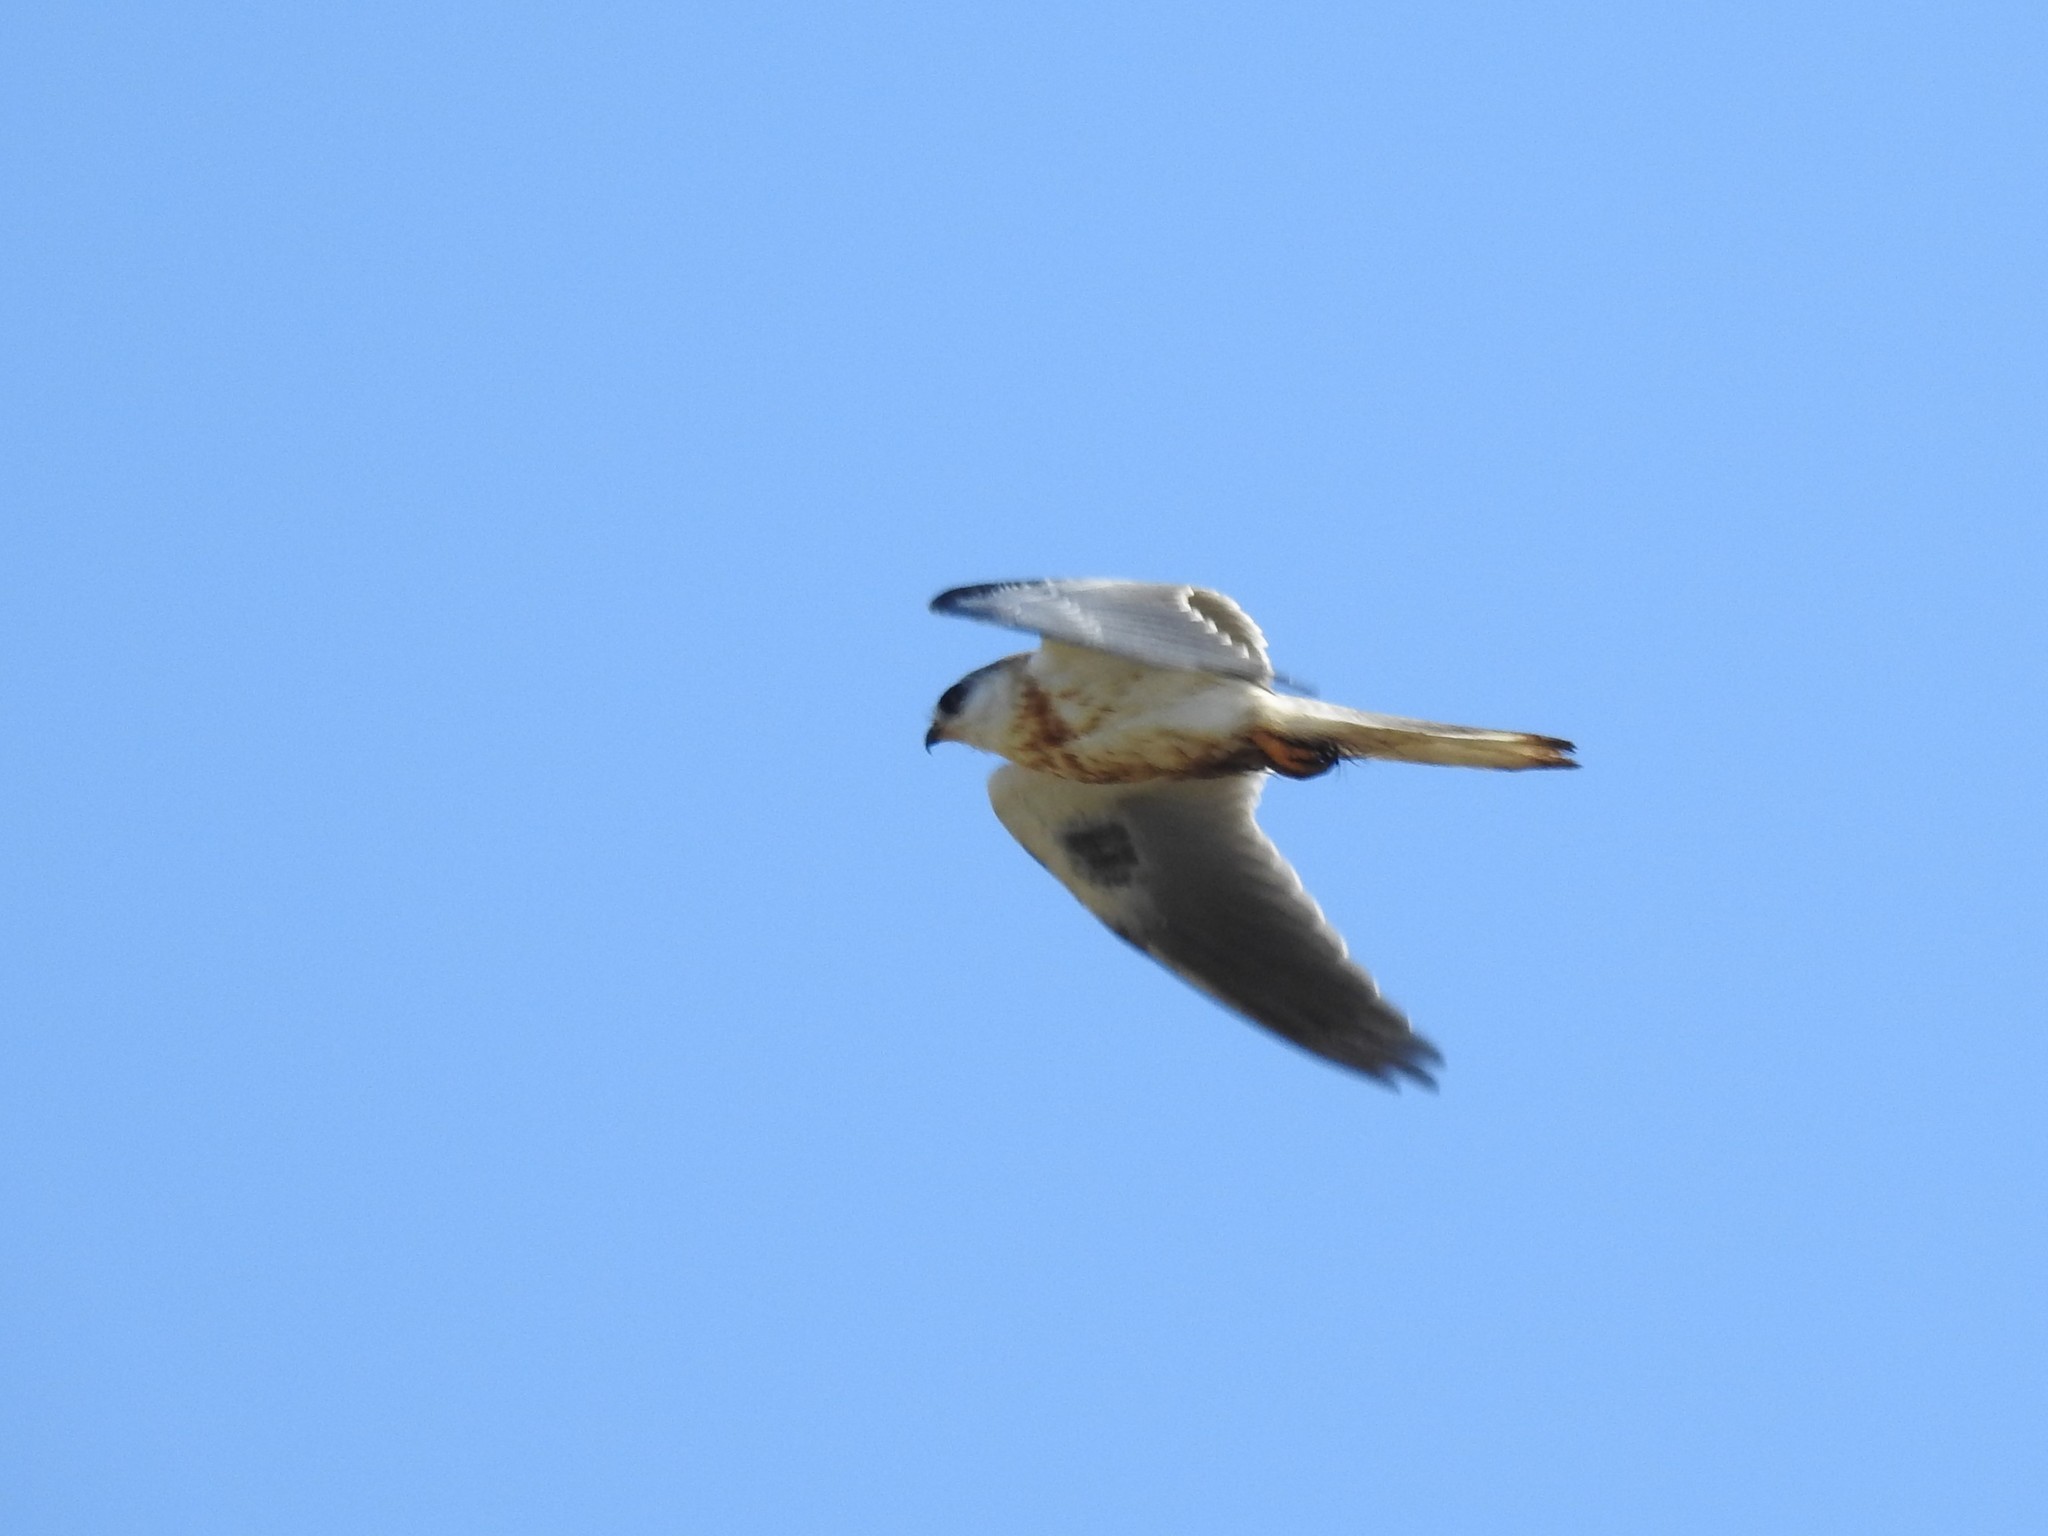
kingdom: Animalia
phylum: Chordata
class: Aves
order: Accipitriformes
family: Accipitridae
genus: Elanus
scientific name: Elanus leucurus
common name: White-tailed kite
